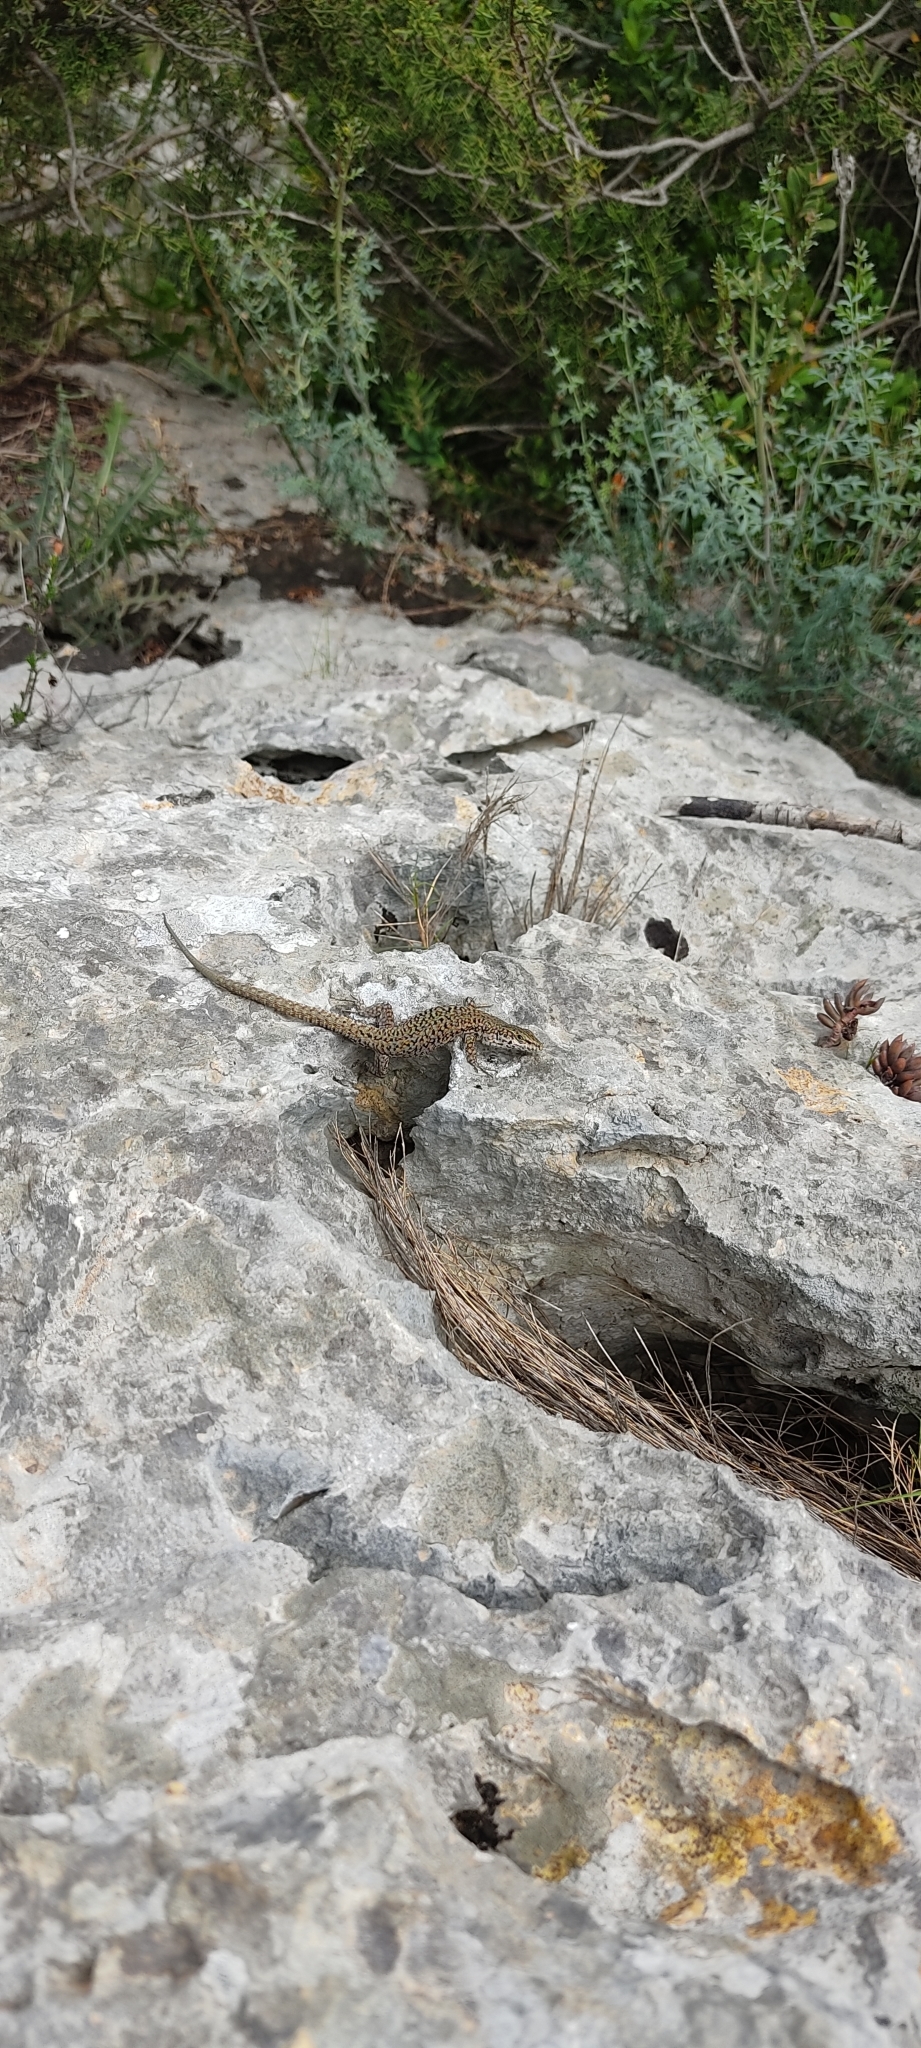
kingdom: Animalia
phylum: Chordata
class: Squamata
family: Lacertidae
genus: Podarcis
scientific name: Podarcis liolepis
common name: Catalonian wall lizard
